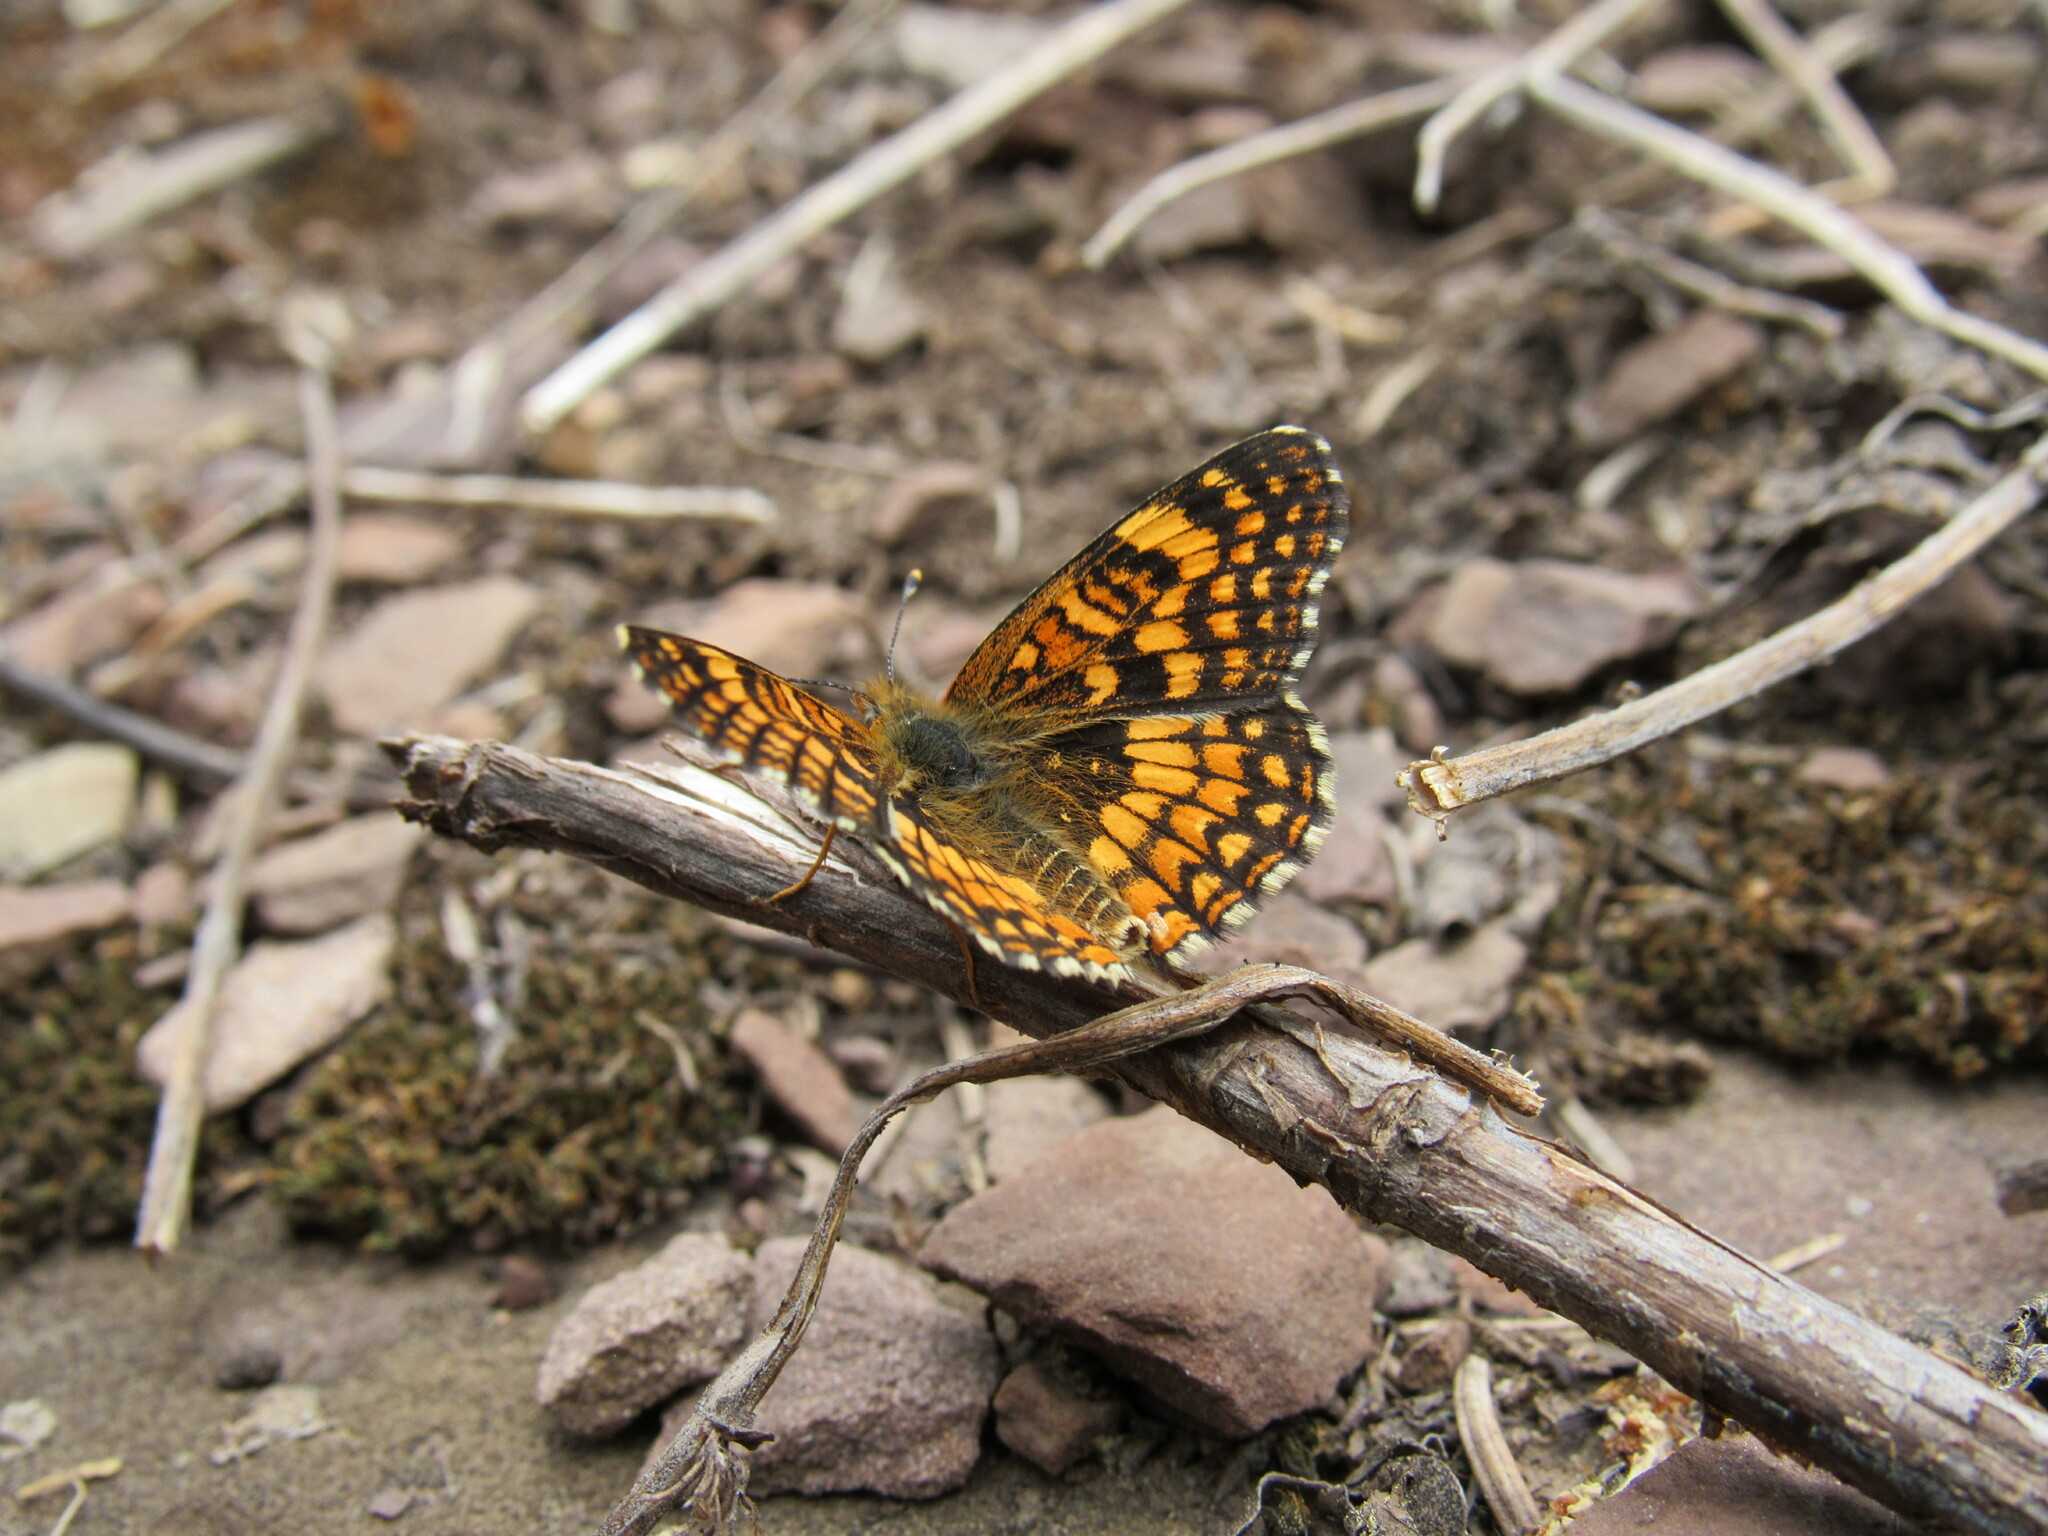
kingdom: Animalia
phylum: Arthropoda
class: Insecta
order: Lepidoptera
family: Nymphalidae
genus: Chlosyne
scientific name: Chlosyne palla
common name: Northern checkerspot
